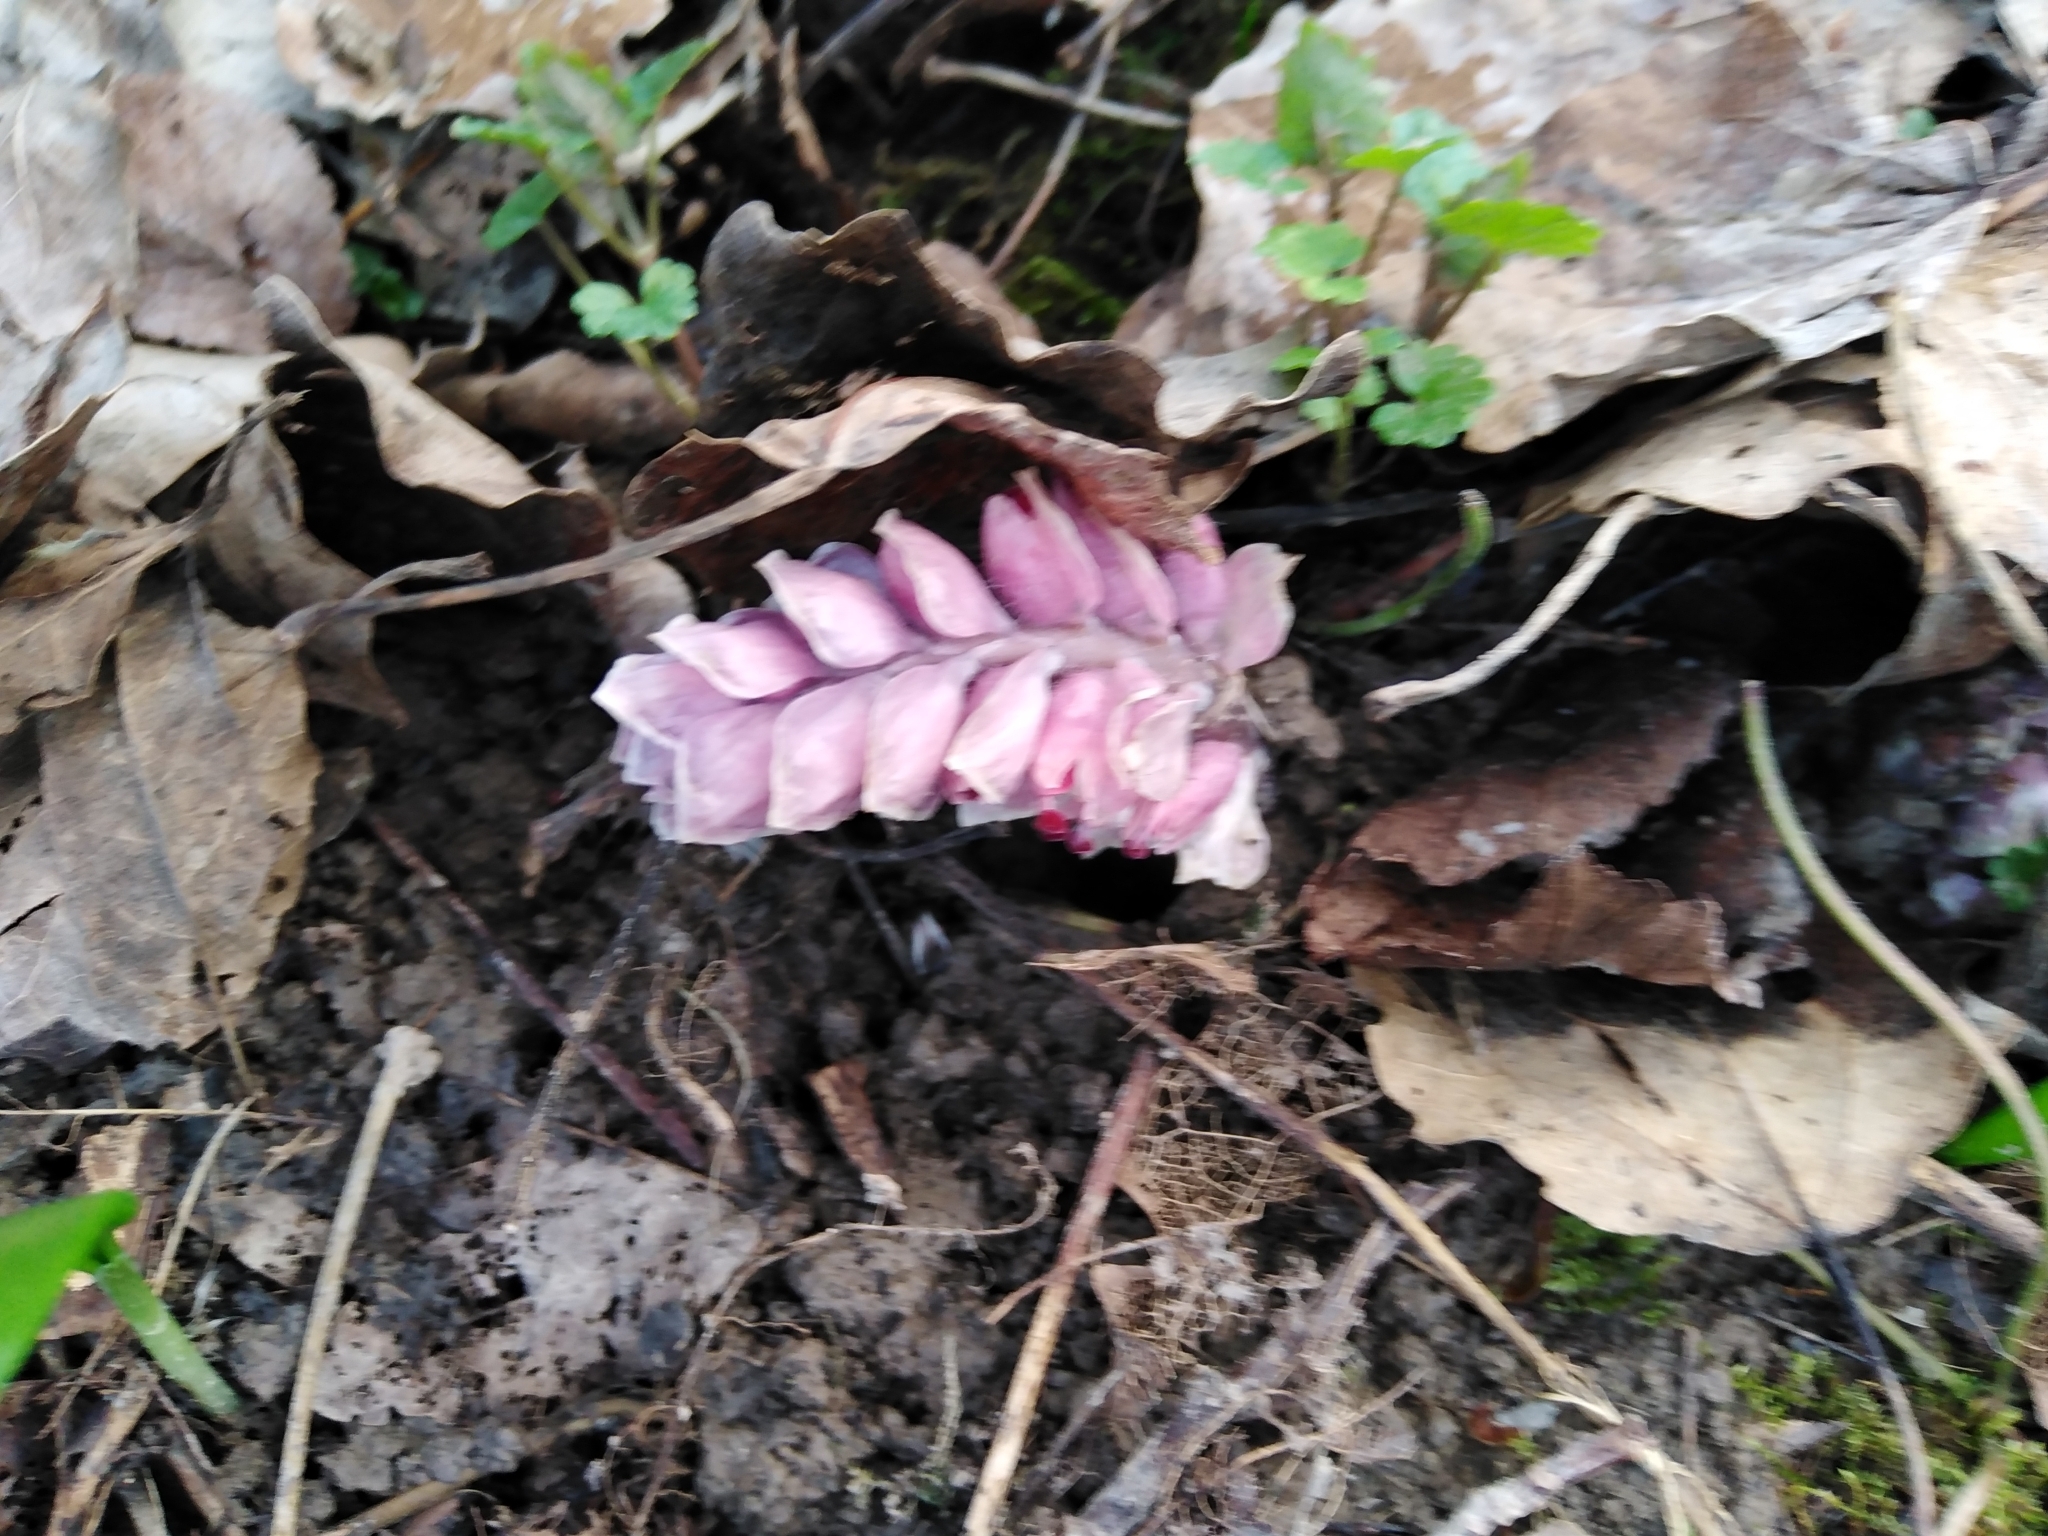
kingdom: Plantae
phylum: Tracheophyta
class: Magnoliopsida
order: Lamiales
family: Orobanchaceae
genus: Lathraea
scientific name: Lathraea squamaria
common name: Toothwort
